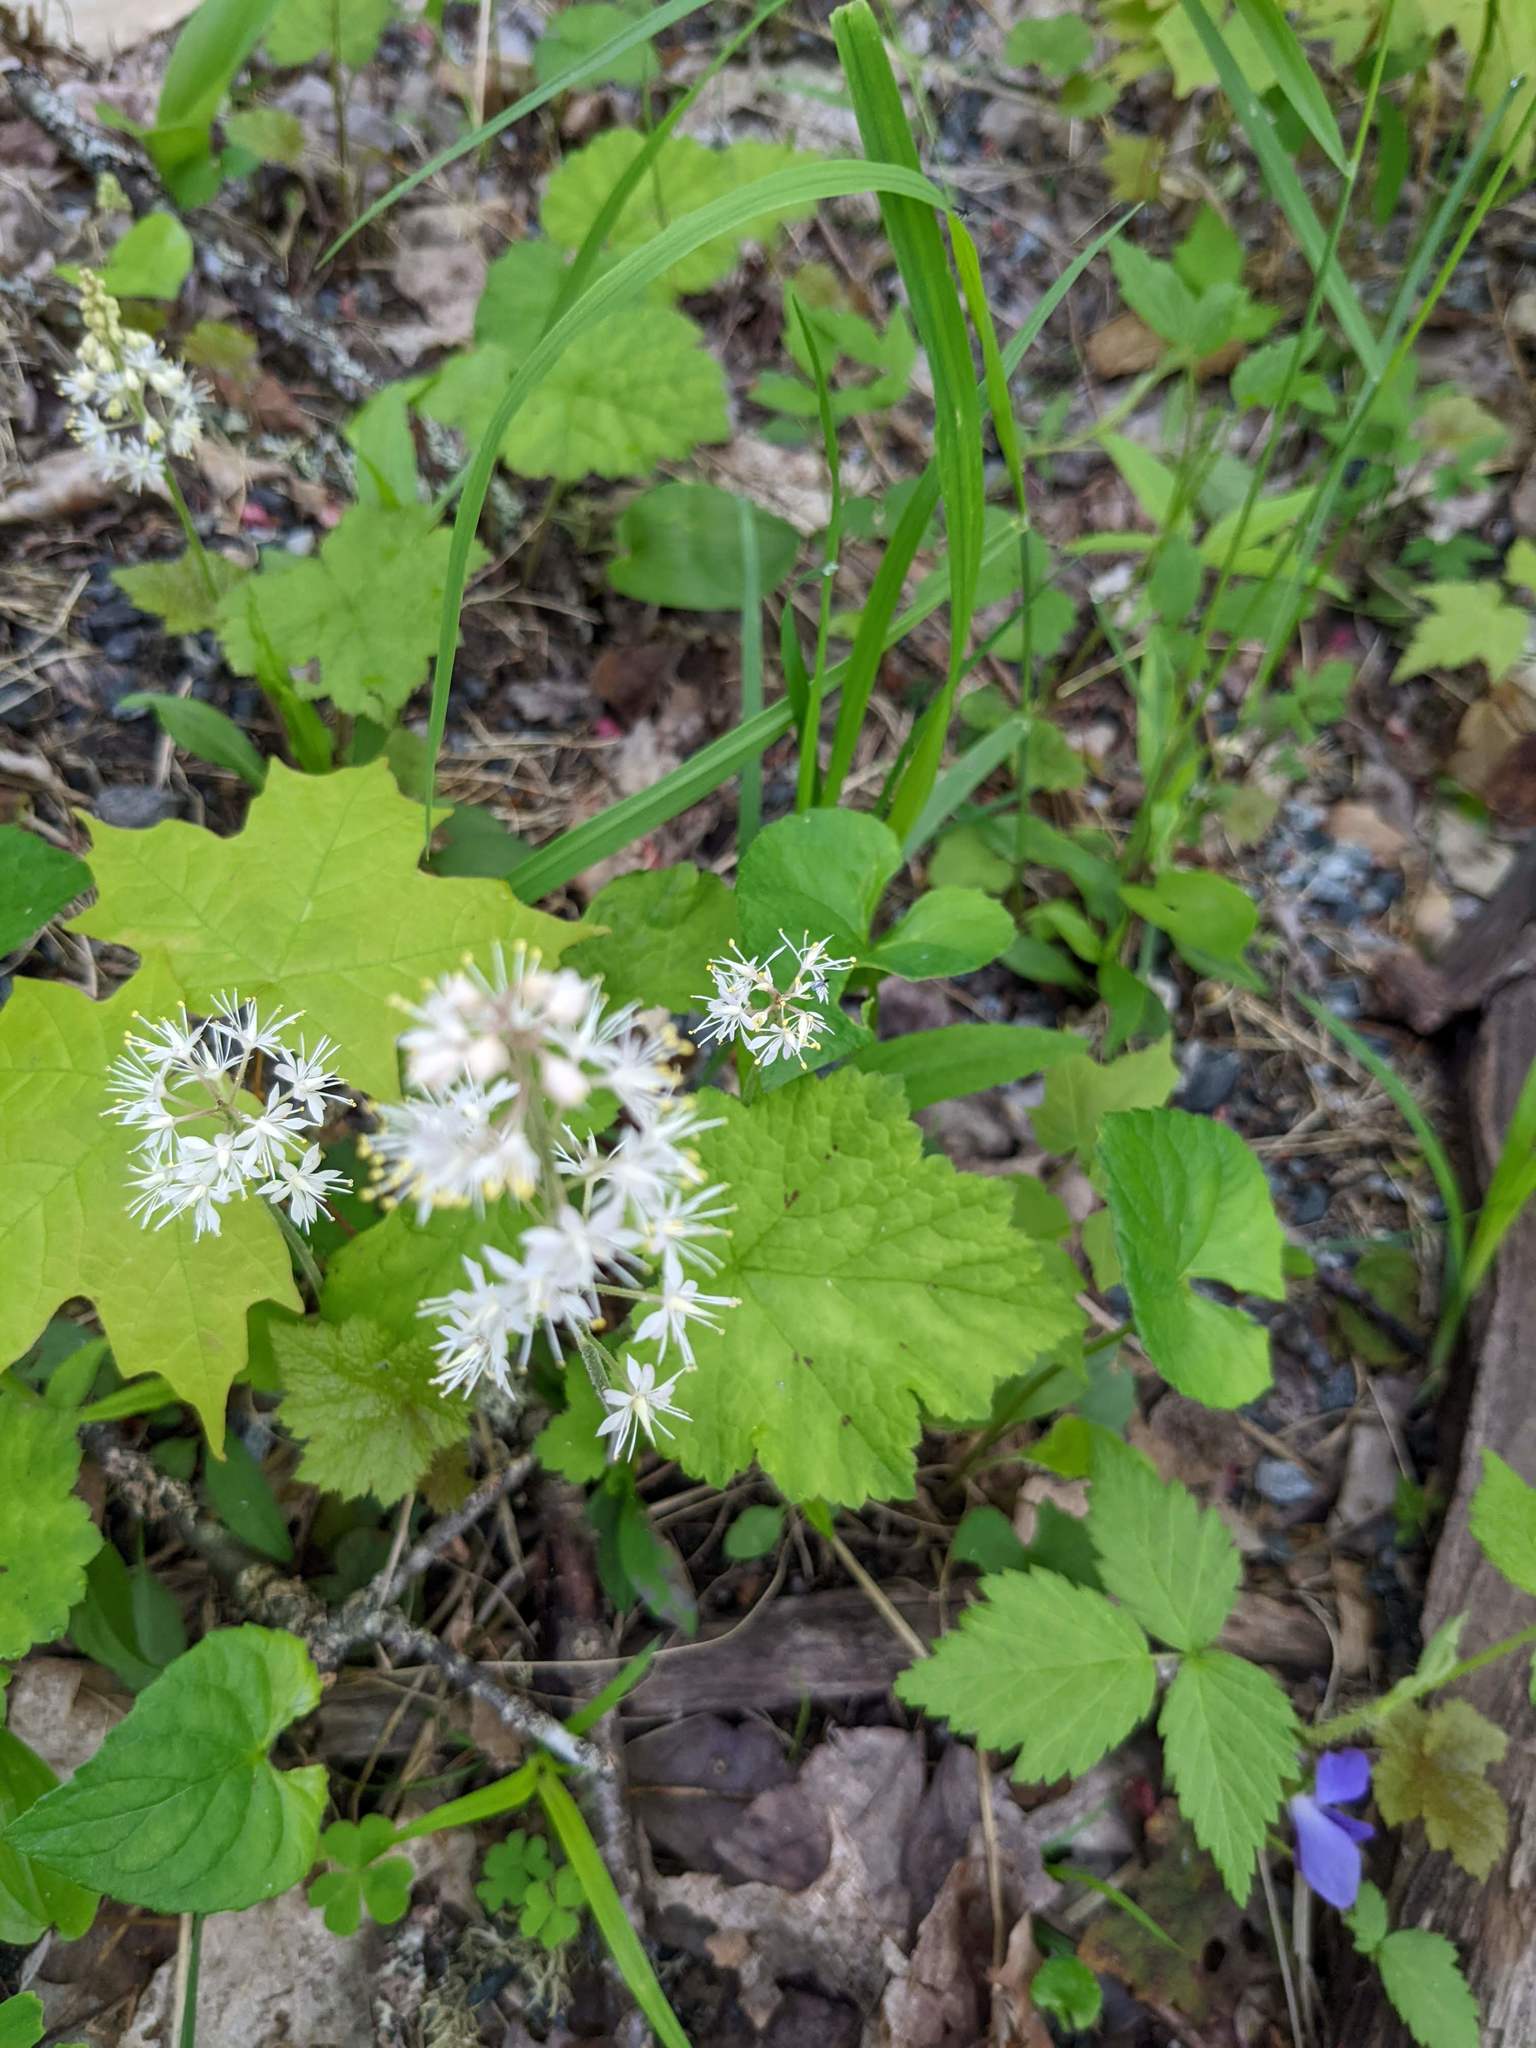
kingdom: Plantae
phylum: Tracheophyta
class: Magnoliopsida
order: Saxifragales
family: Saxifragaceae
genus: Tiarella
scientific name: Tiarella stolonifera
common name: Stoloniferous foamflower
